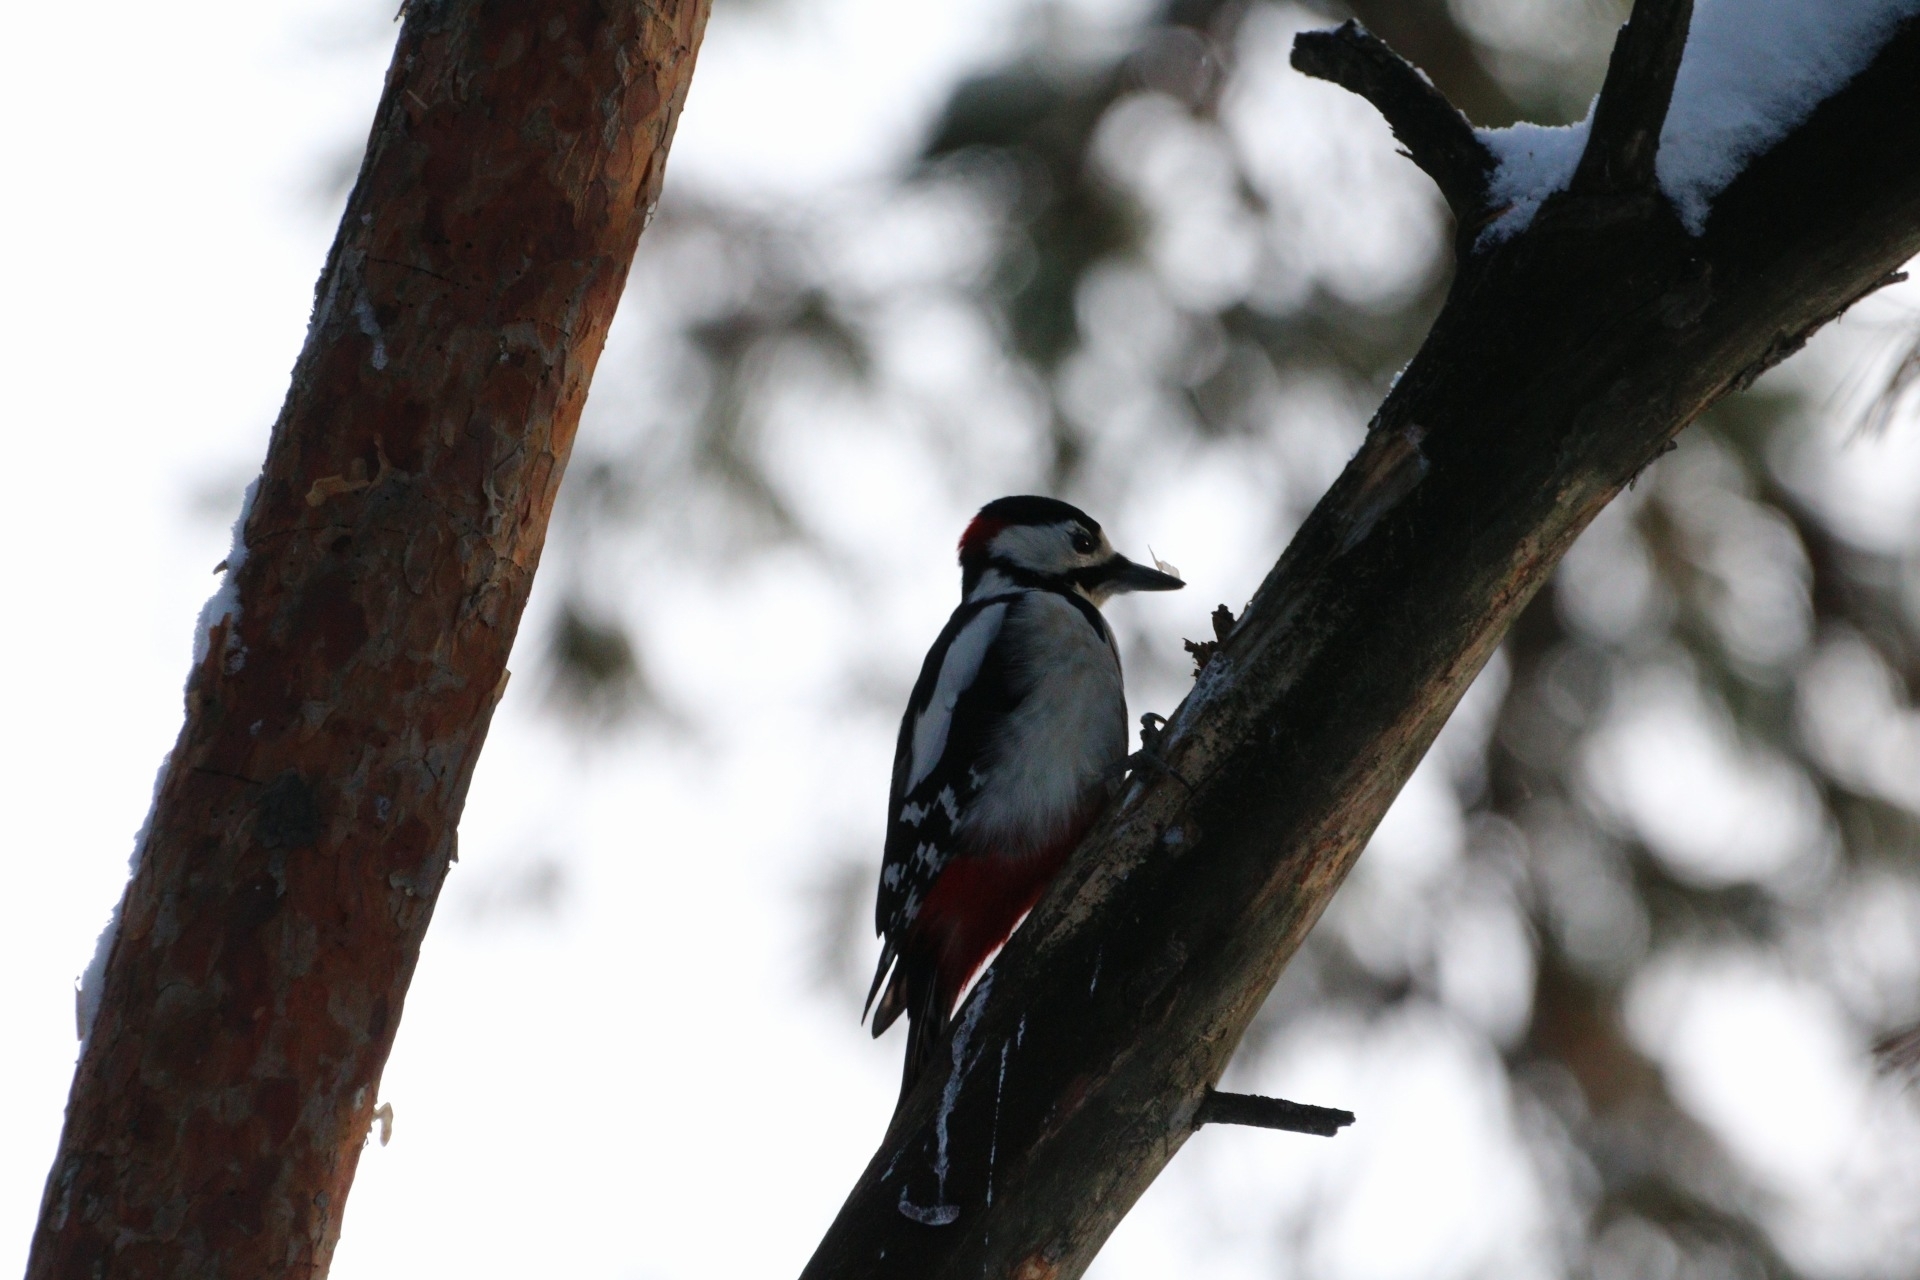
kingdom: Animalia
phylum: Chordata
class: Aves
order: Piciformes
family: Picidae
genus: Dendrocopos
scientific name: Dendrocopos major
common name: Great spotted woodpecker
